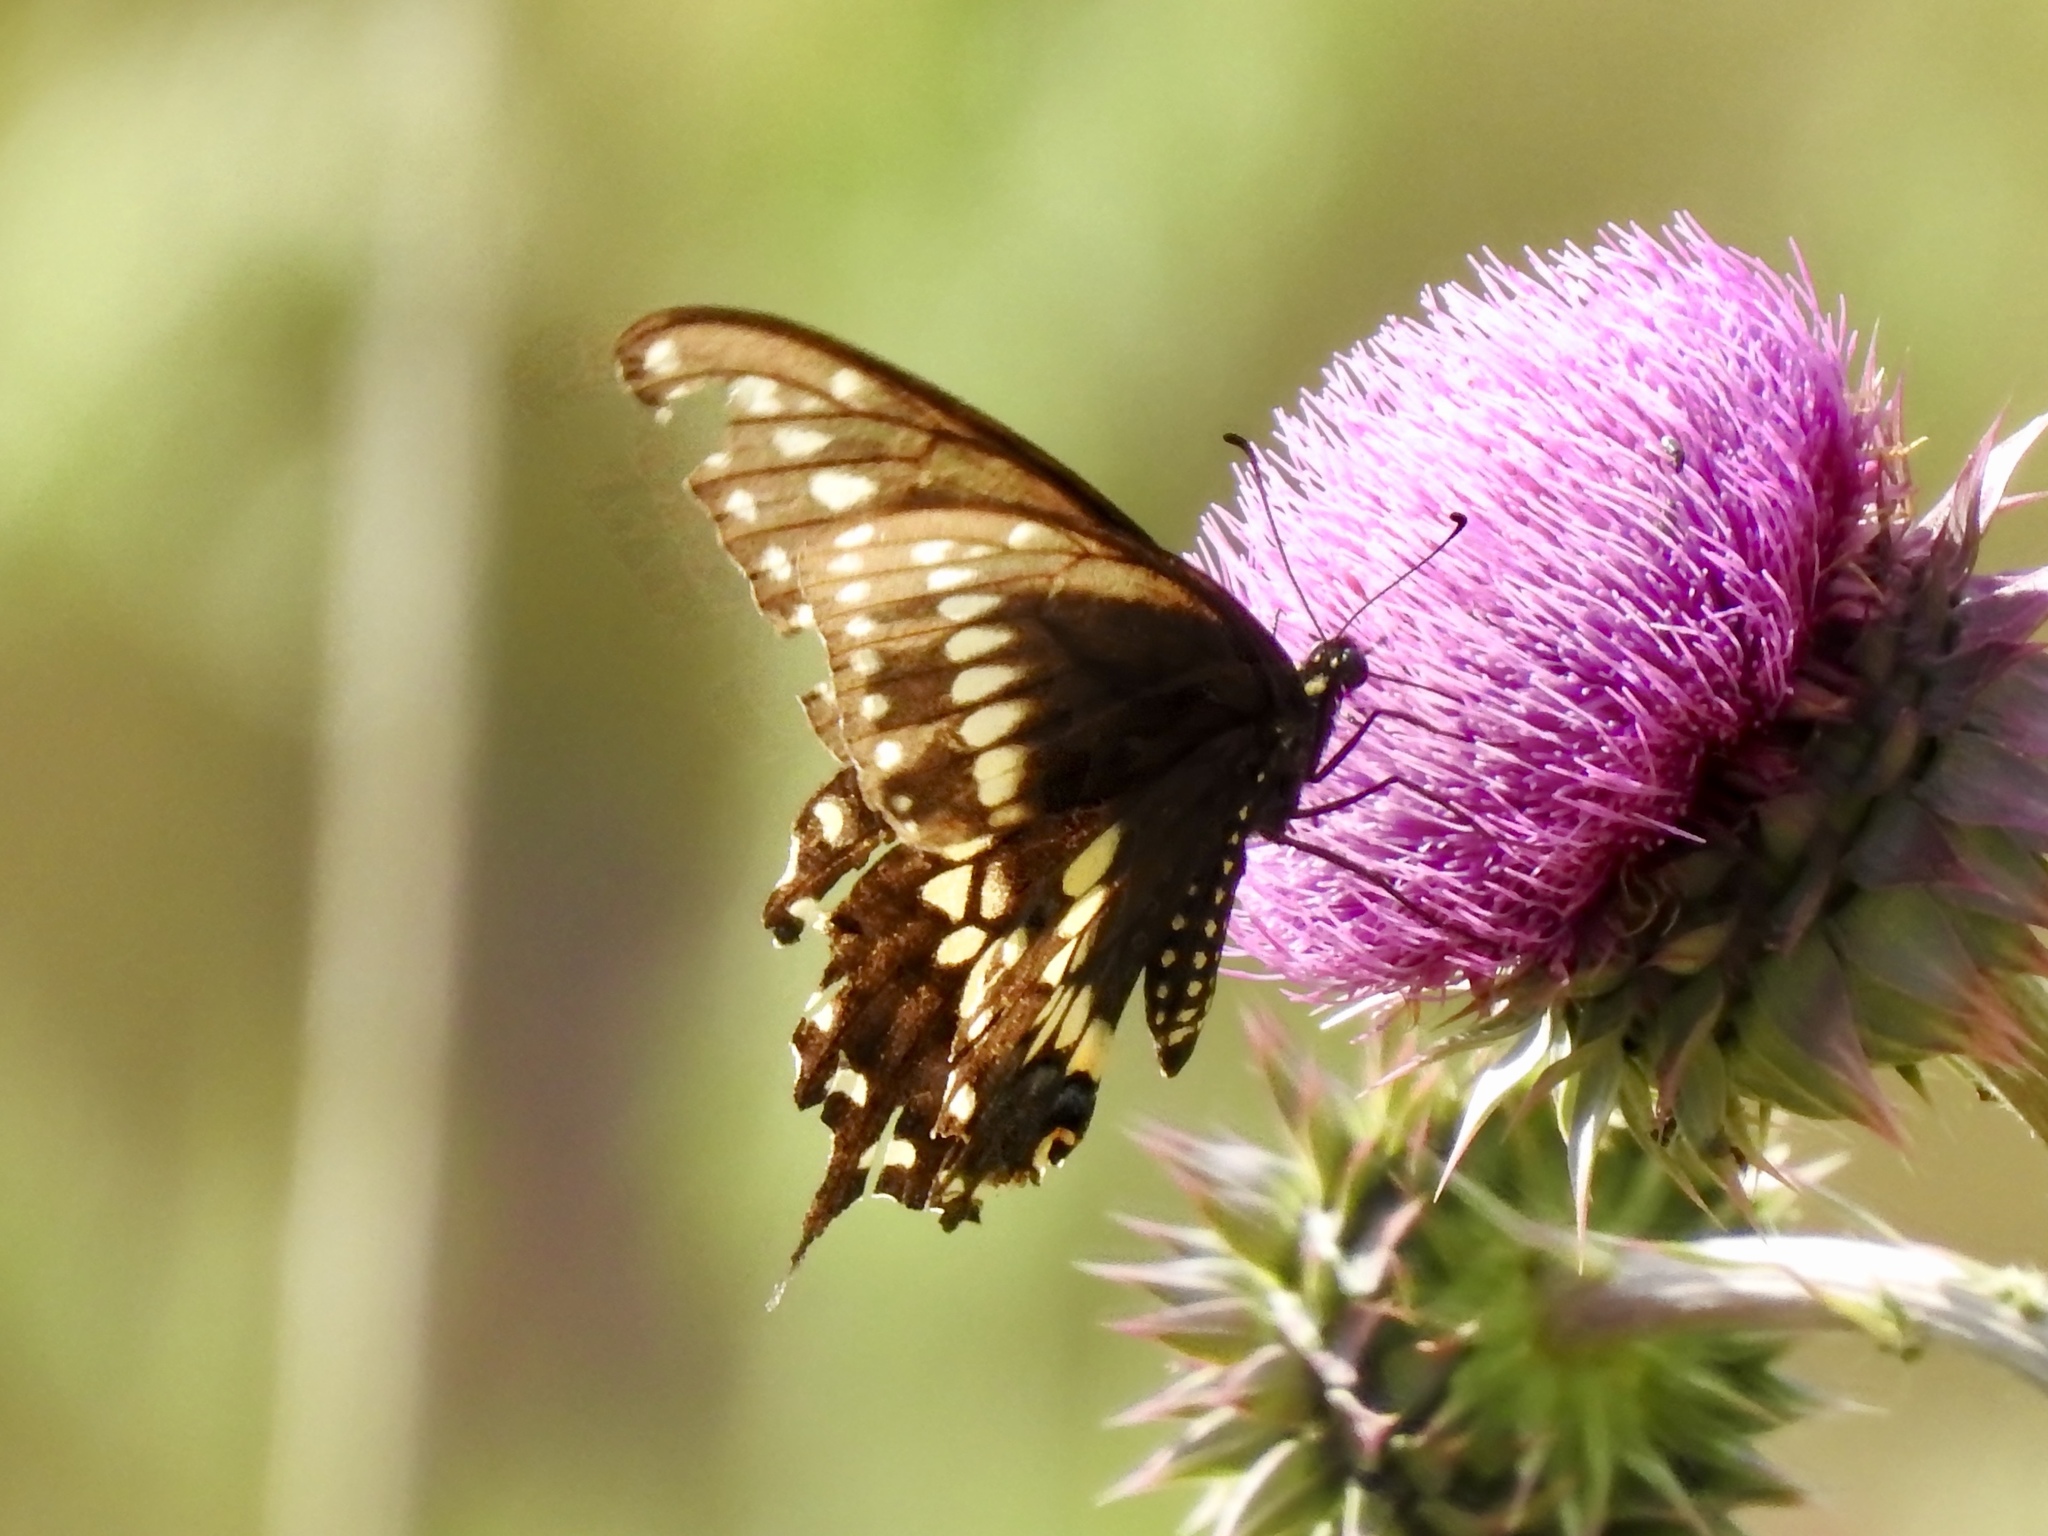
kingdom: Animalia
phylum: Arthropoda
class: Insecta
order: Lepidoptera
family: Papilionidae
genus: Papilio
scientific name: Papilio polyxenes
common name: Black swallowtail
